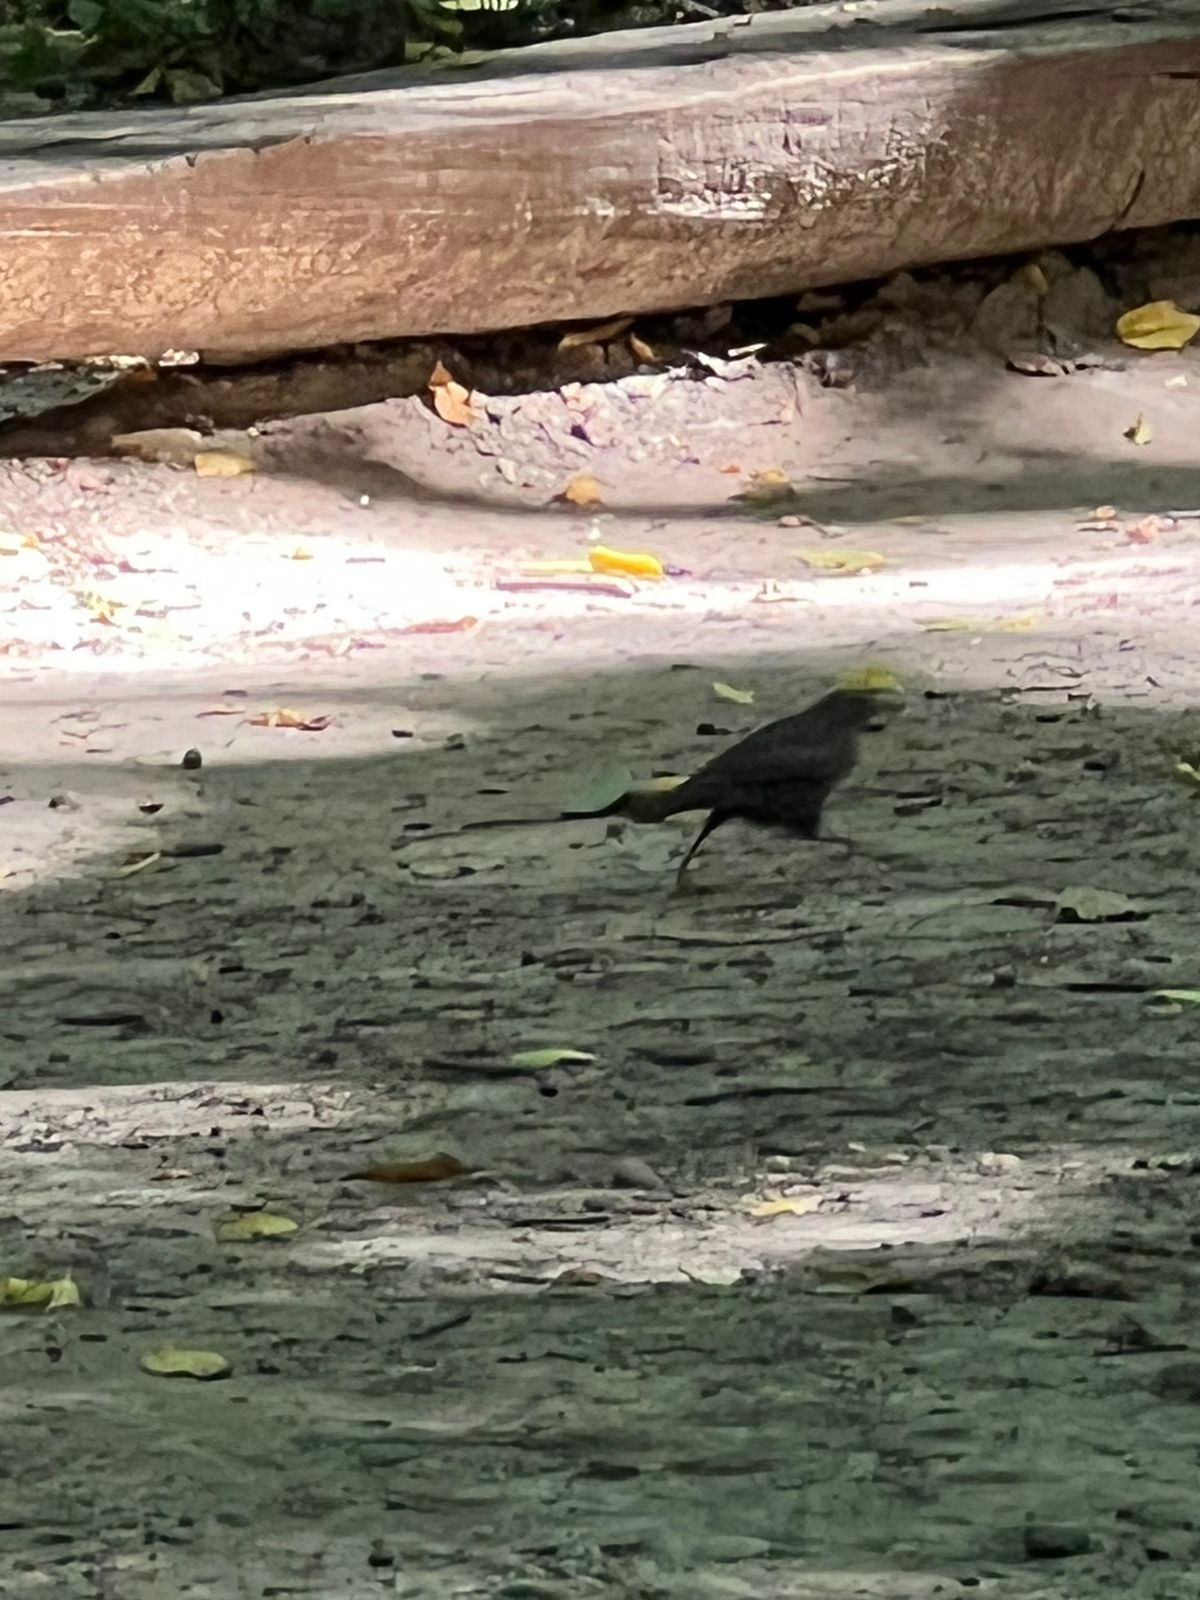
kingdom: Animalia
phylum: Chordata
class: Aves
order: Passeriformes
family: Turdidae
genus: Turdus
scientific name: Turdus merula
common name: Common blackbird
